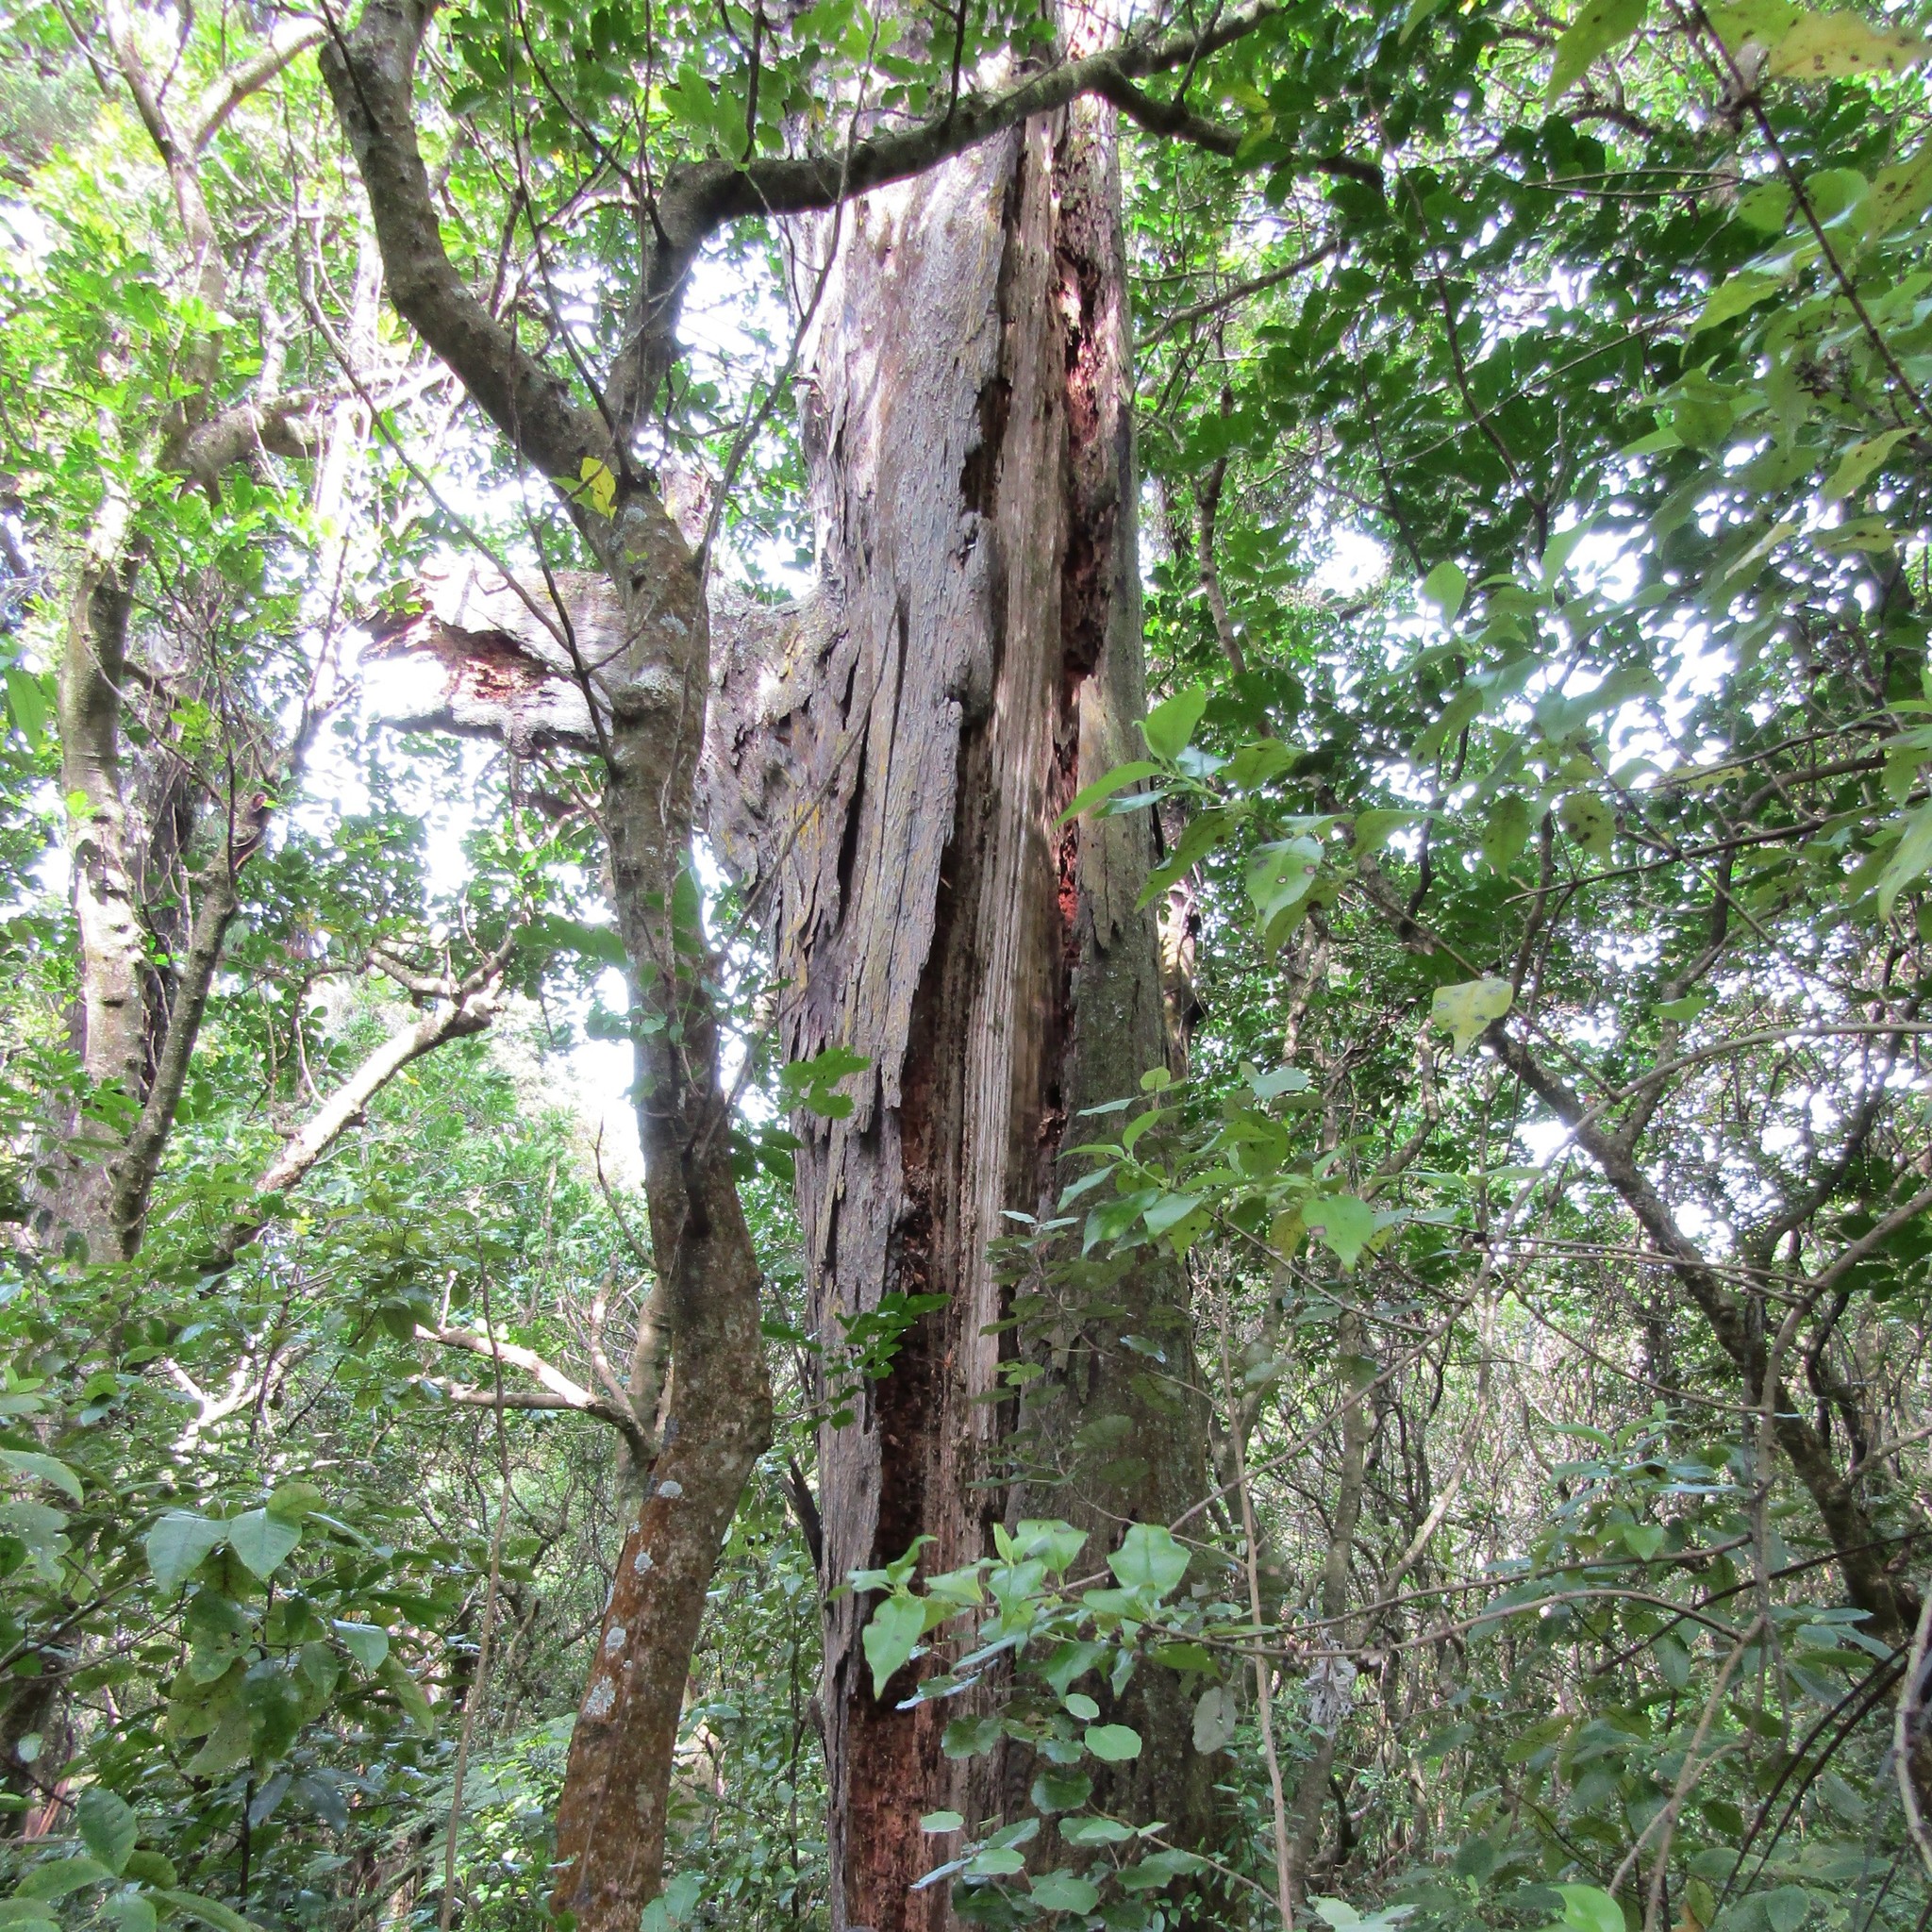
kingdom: Plantae
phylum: Tracheophyta
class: Pinopsida
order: Pinales
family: Podocarpaceae
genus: Dacrydium
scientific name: Dacrydium cupressinum
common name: Red pine
